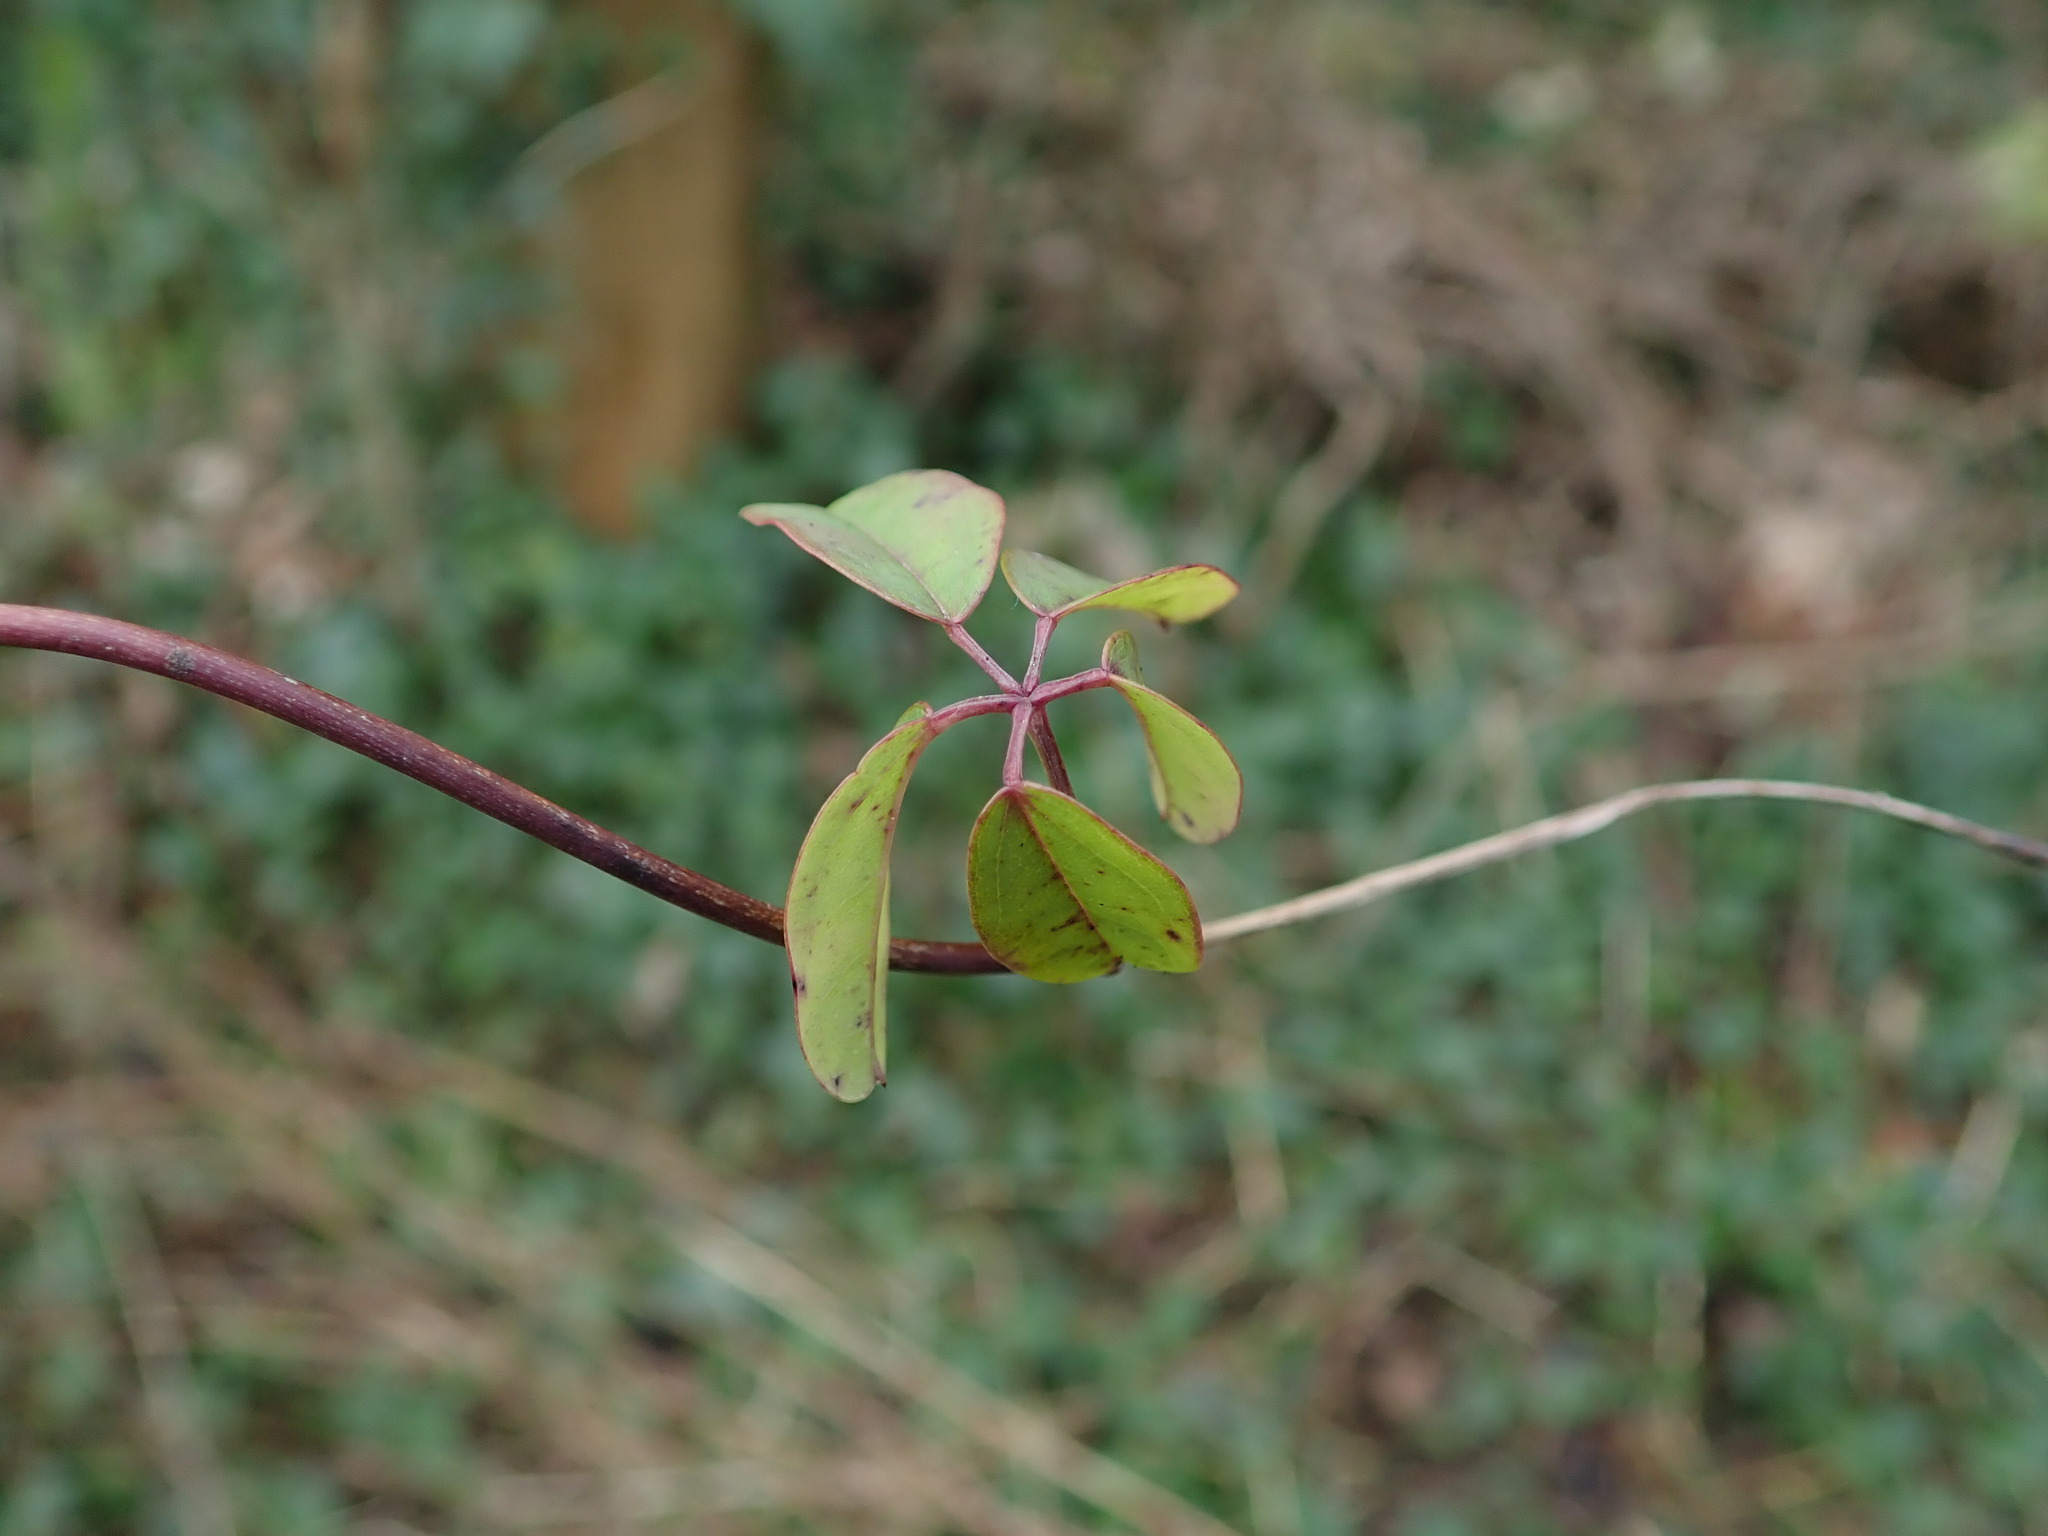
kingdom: Plantae
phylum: Tracheophyta
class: Magnoliopsida
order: Ranunculales
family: Lardizabalaceae
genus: Akebia
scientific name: Akebia quinata
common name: Five-leaf akebia
